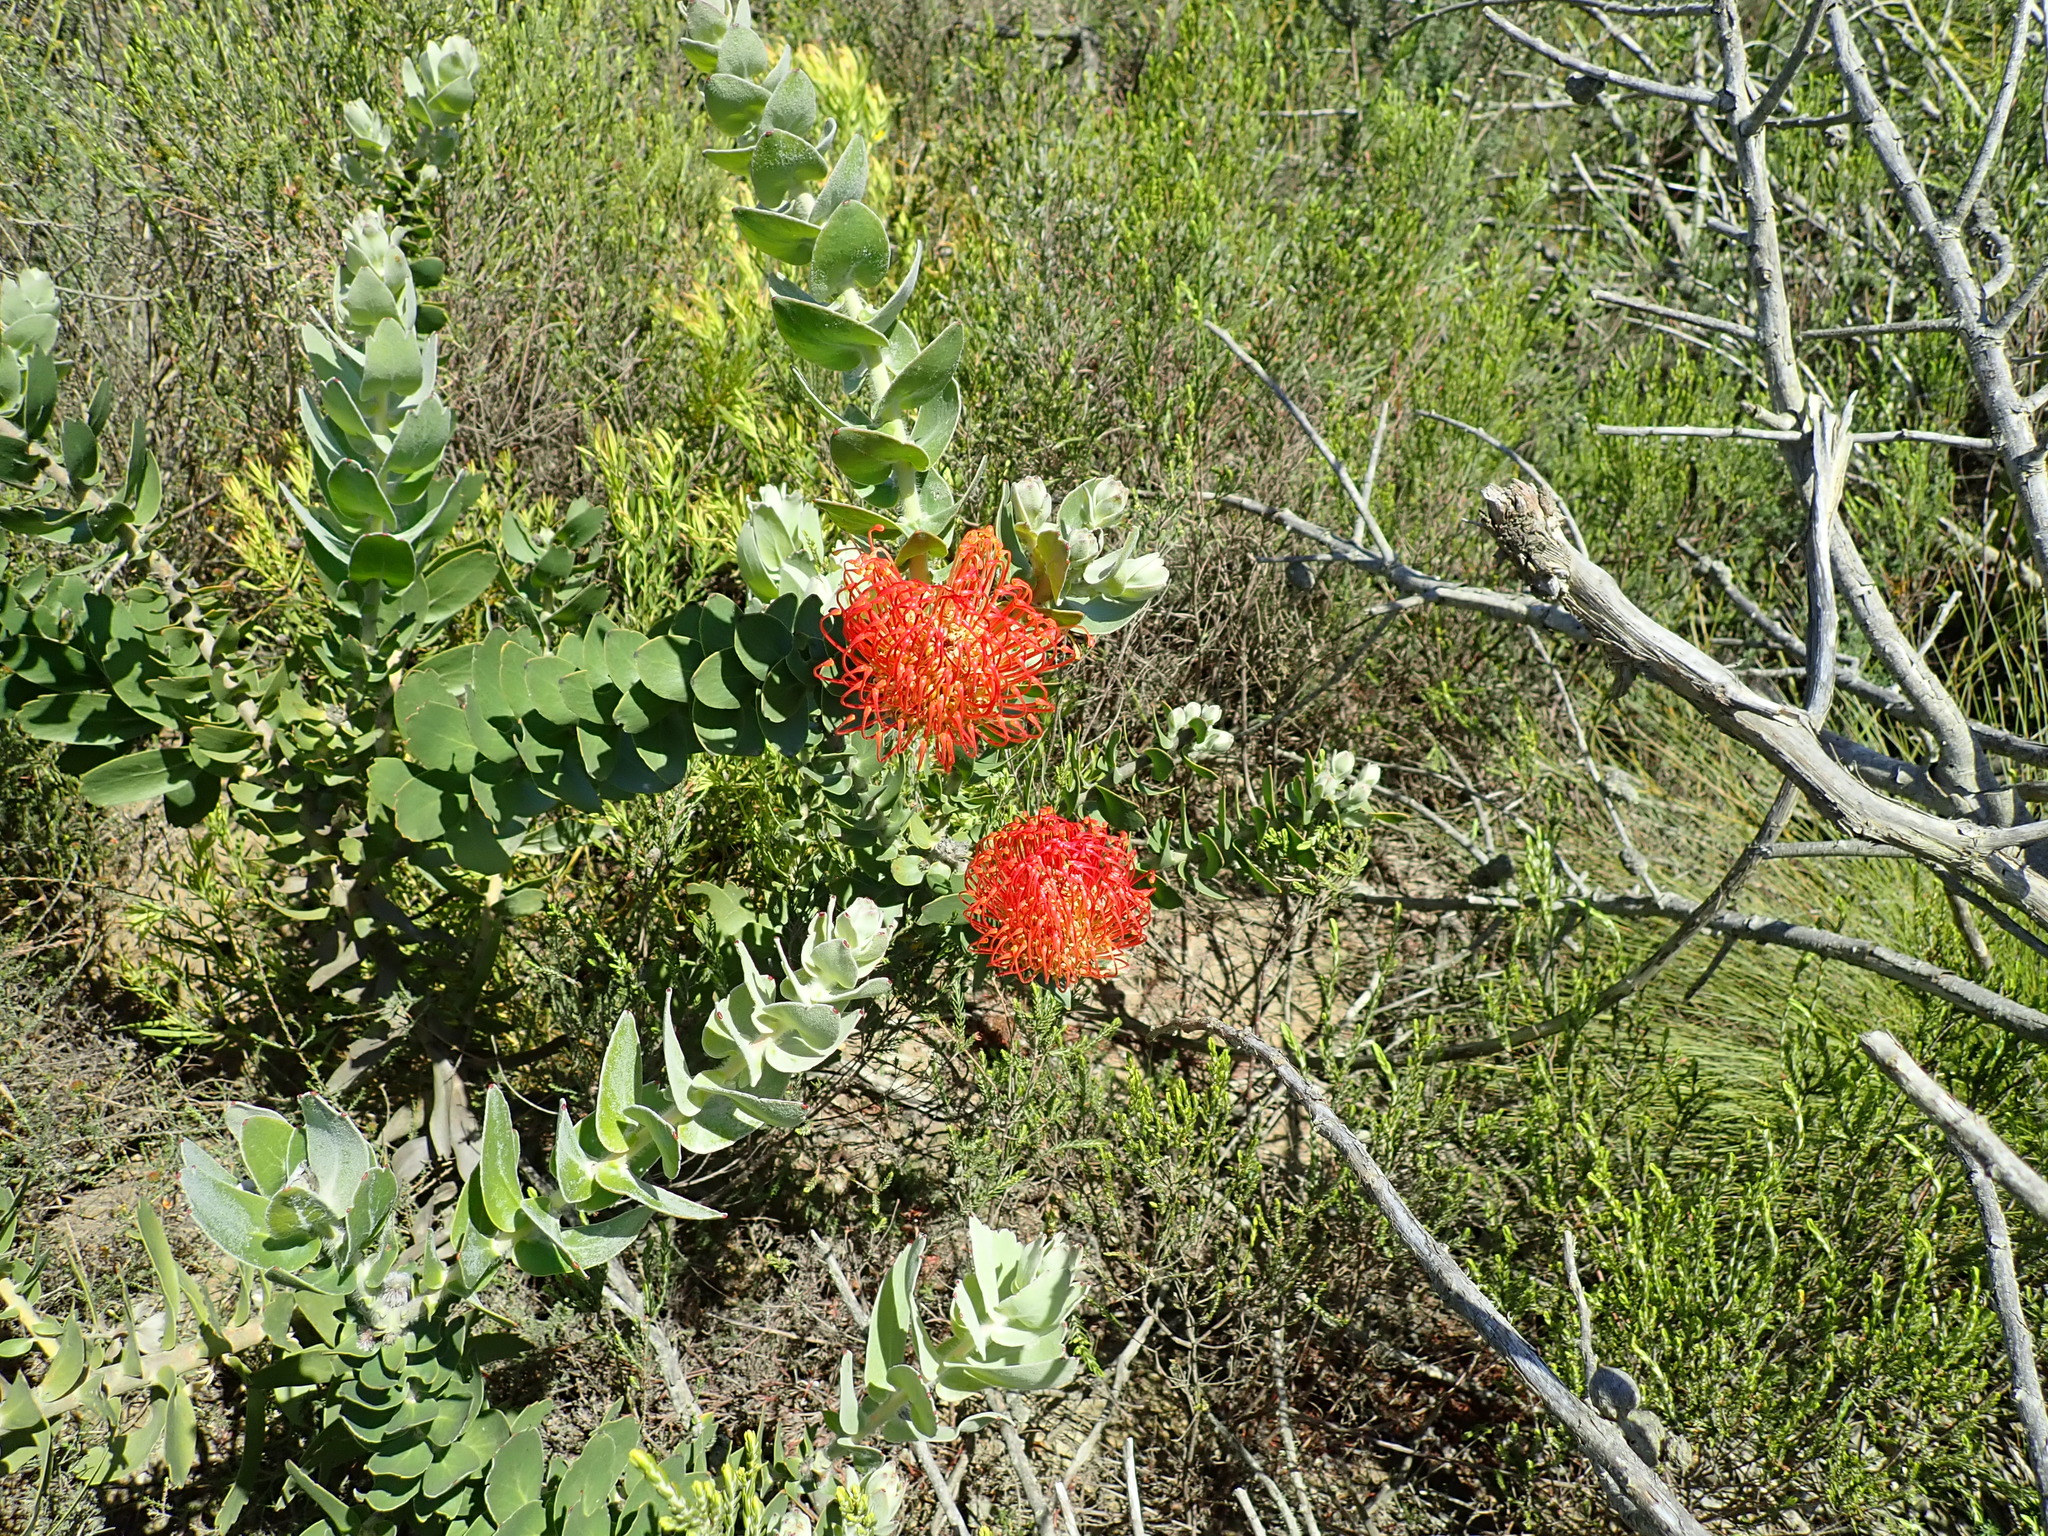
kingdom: Plantae
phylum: Tracheophyta
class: Magnoliopsida
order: Proteales
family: Proteaceae
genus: Leucospermum
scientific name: Leucospermum cordifolium
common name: Red pincushion-protea
